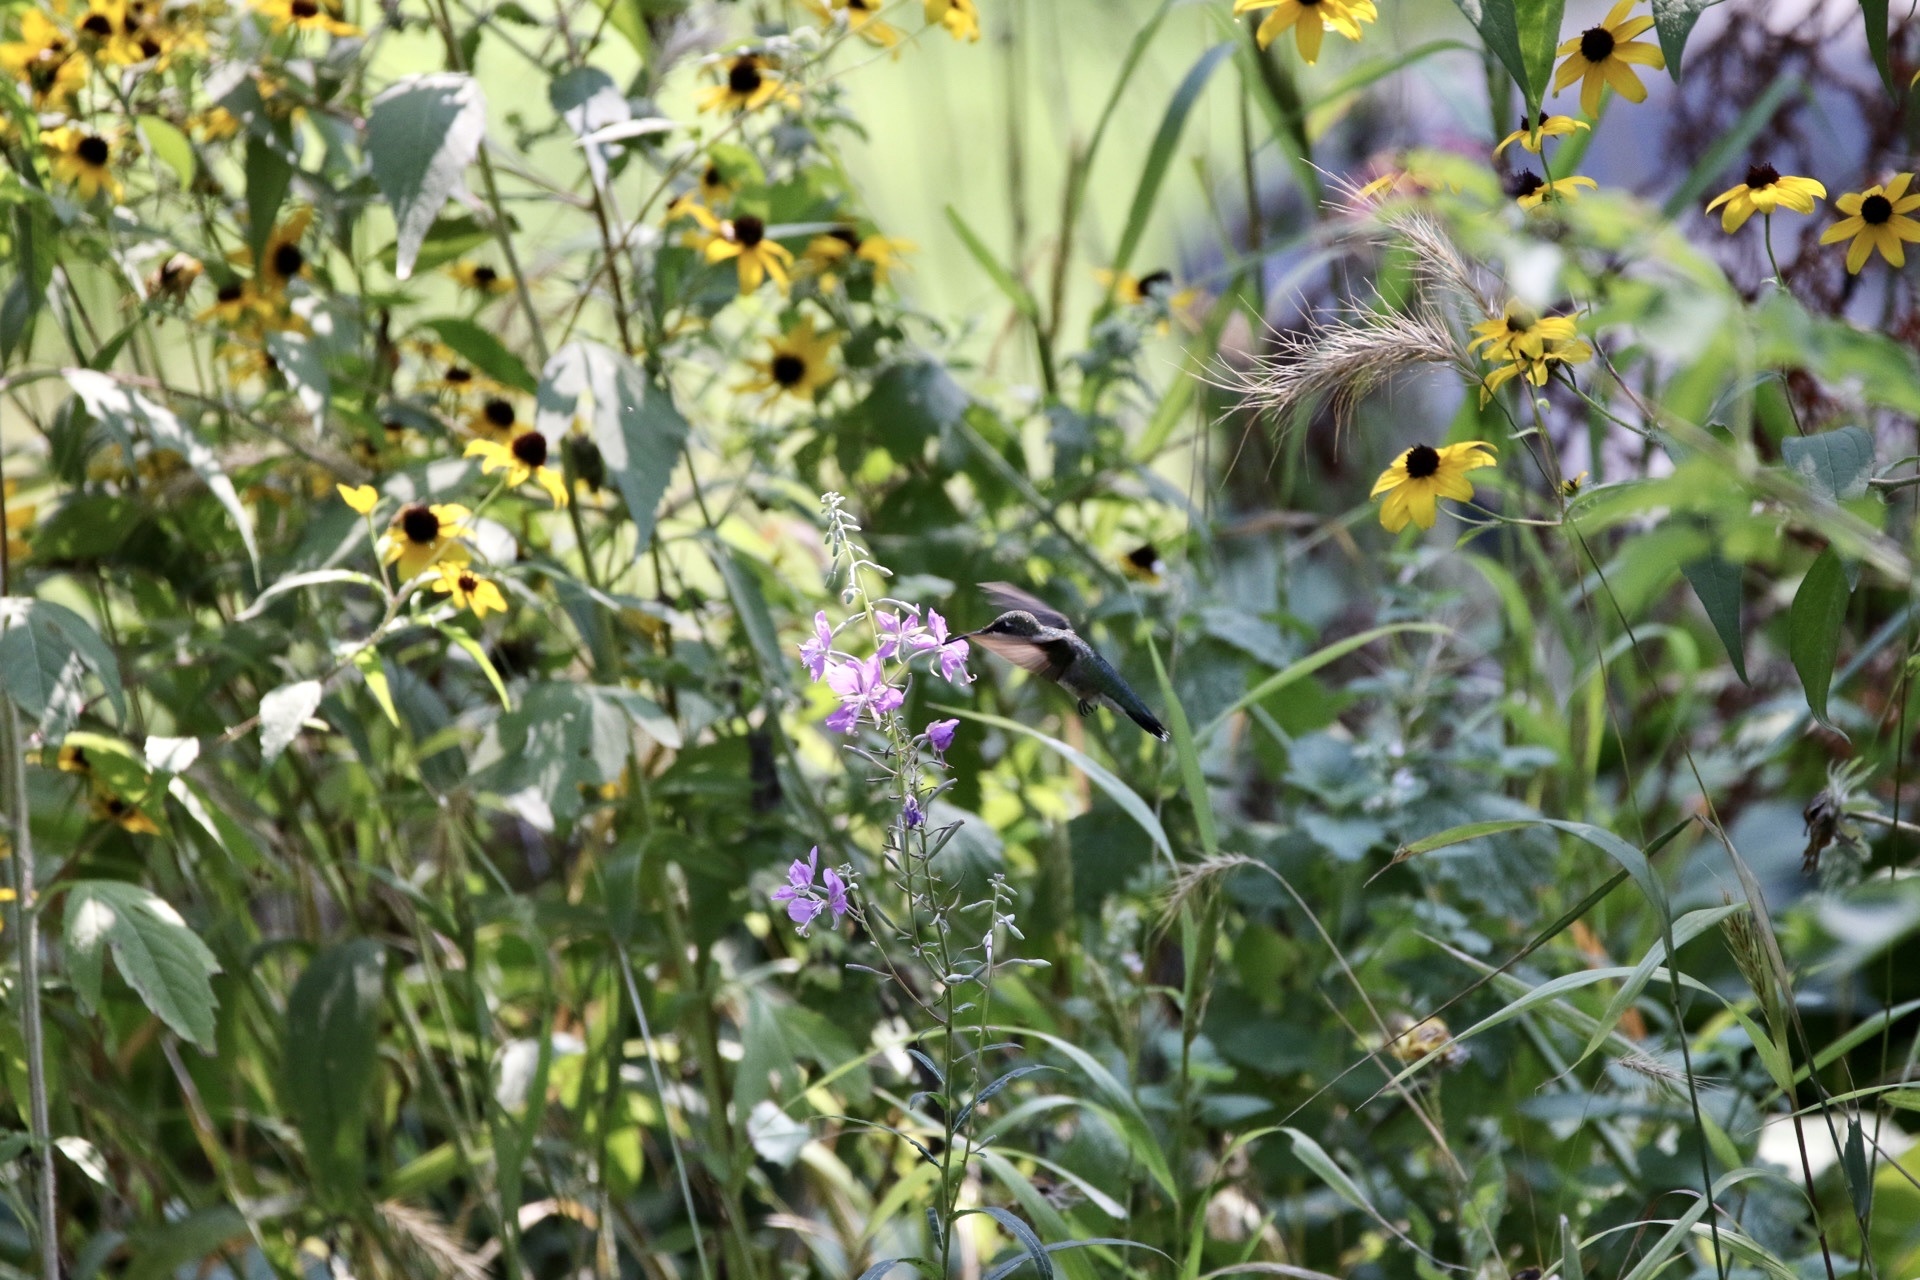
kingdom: Animalia
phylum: Chordata
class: Aves
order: Apodiformes
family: Trochilidae
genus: Archilochus
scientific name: Archilochus colubris
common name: Ruby-throated hummingbird
